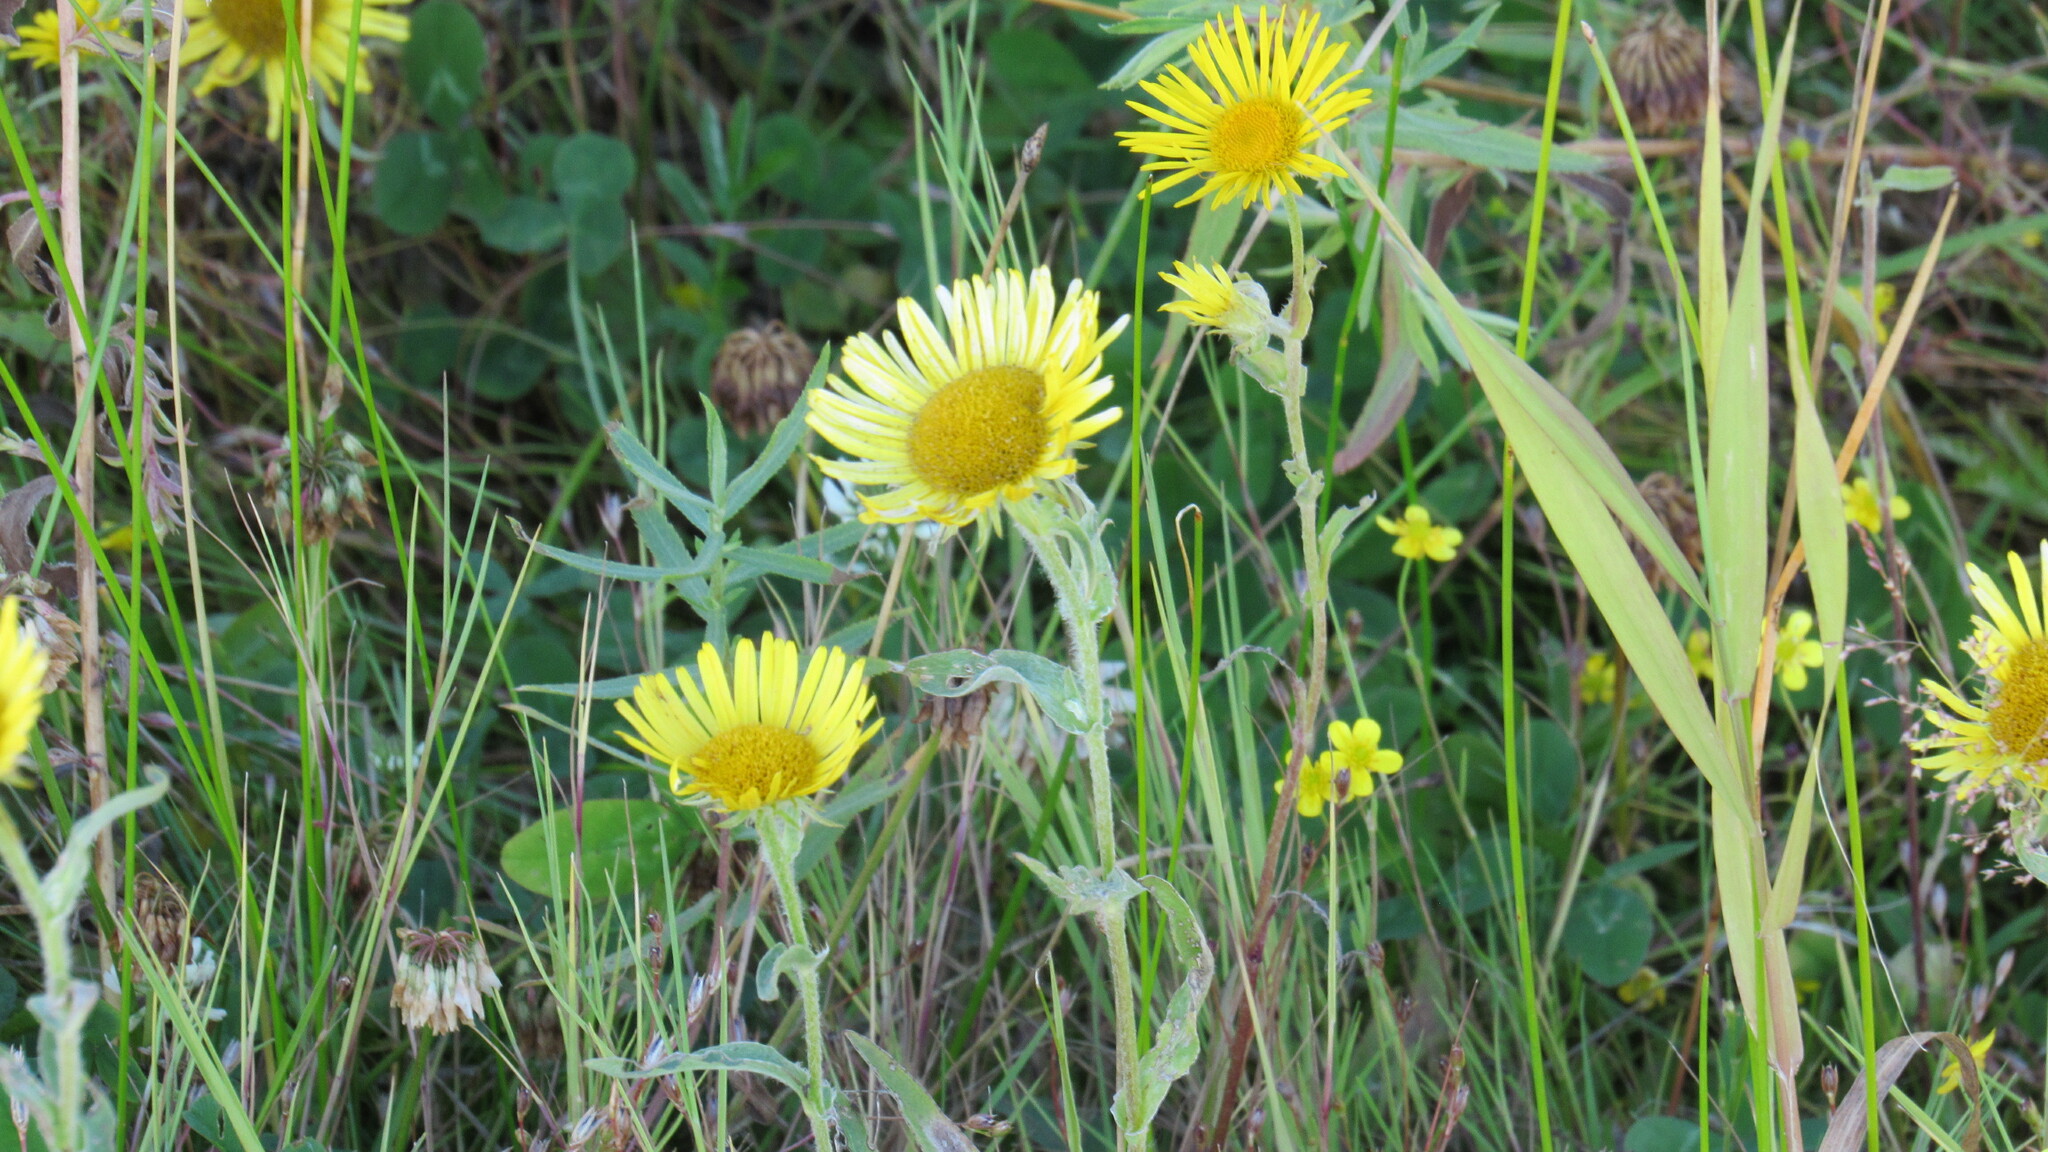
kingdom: Plantae
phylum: Tracheophyta
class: Magnoliopsida
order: Asterales
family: Asteraceae
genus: Pentanema
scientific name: Pentanema britannicum
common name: British elecampane
